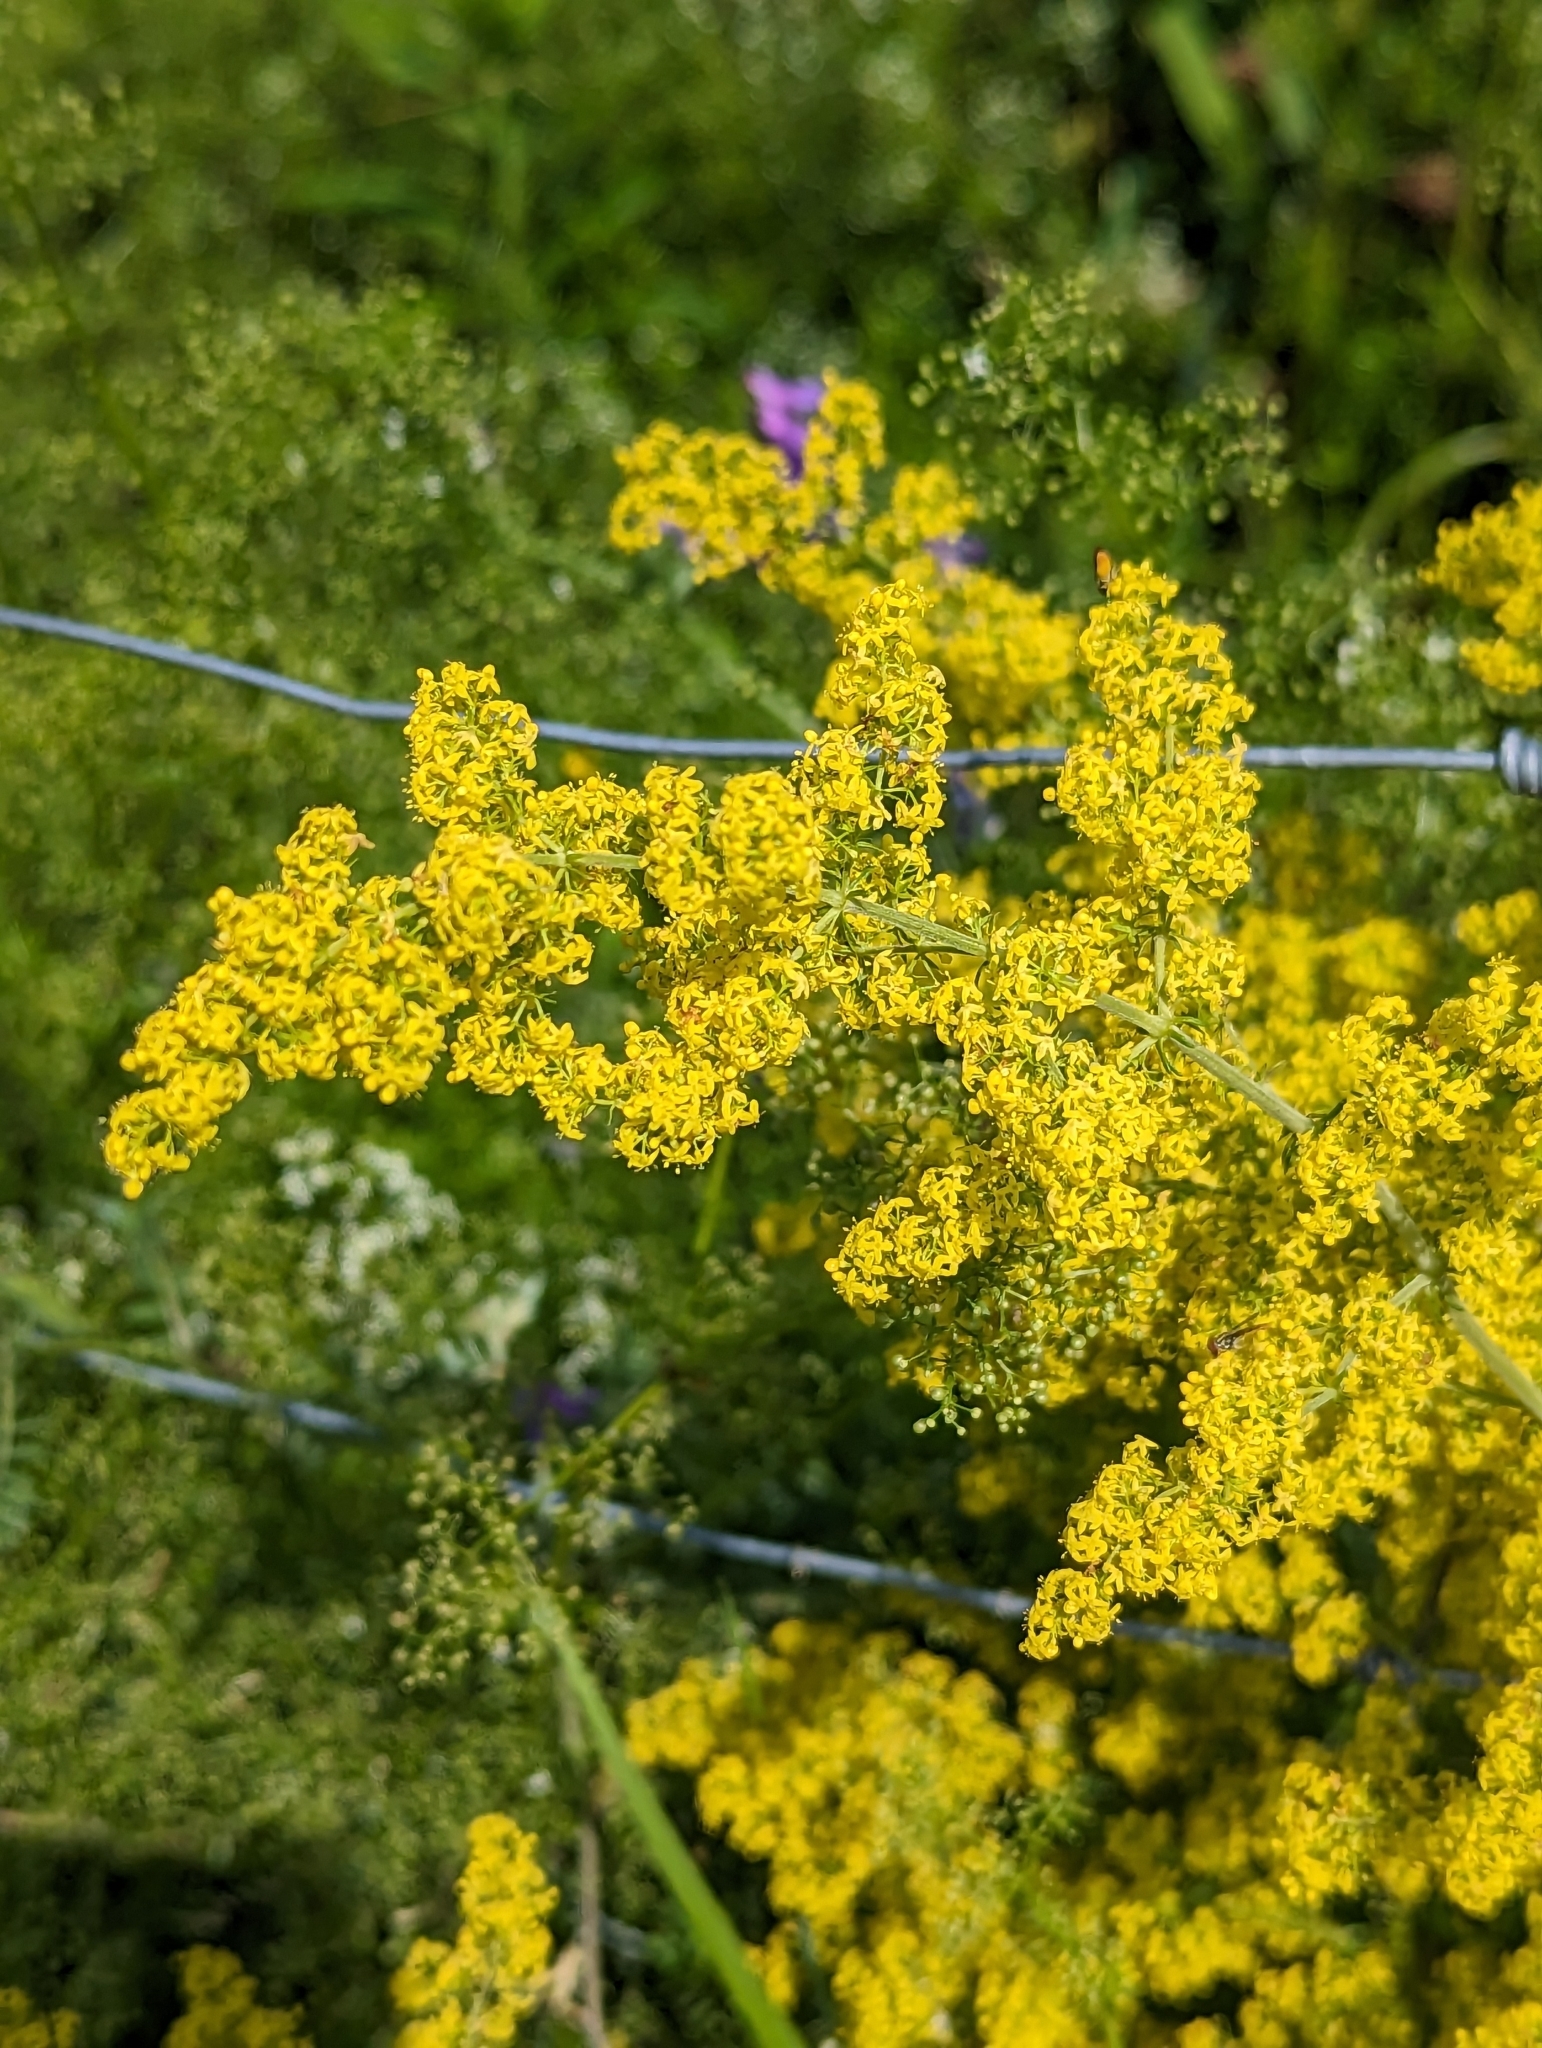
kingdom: Plantae
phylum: Tracheophyta
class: Magnoliopsida
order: Gentianales
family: Rubiaceae
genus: Galium
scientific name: Galium verum
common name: Lady's bedstraw
